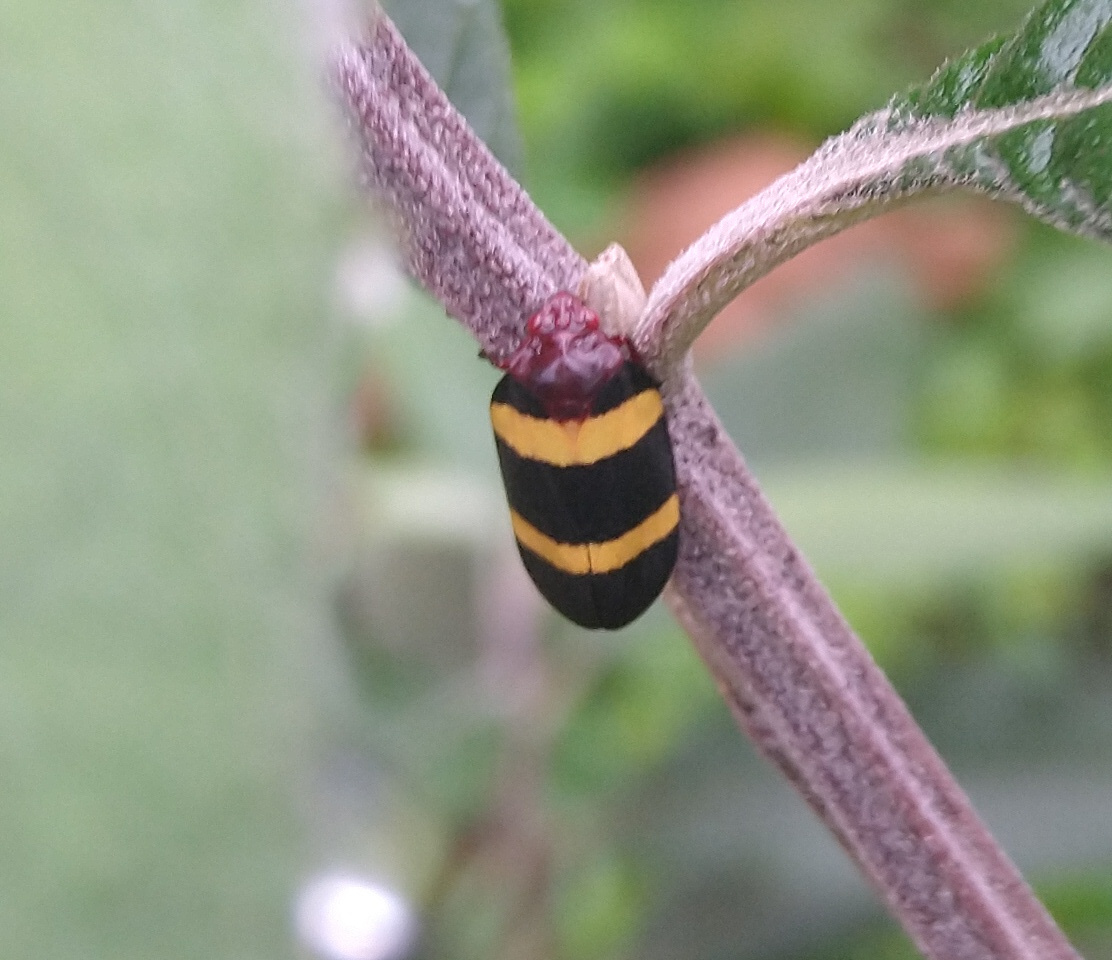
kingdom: Animalia
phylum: Arthropoda
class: Insecta
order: Hemiptera
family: Cercopidae
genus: Sphenorhina
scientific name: Sphenorhina rubra
